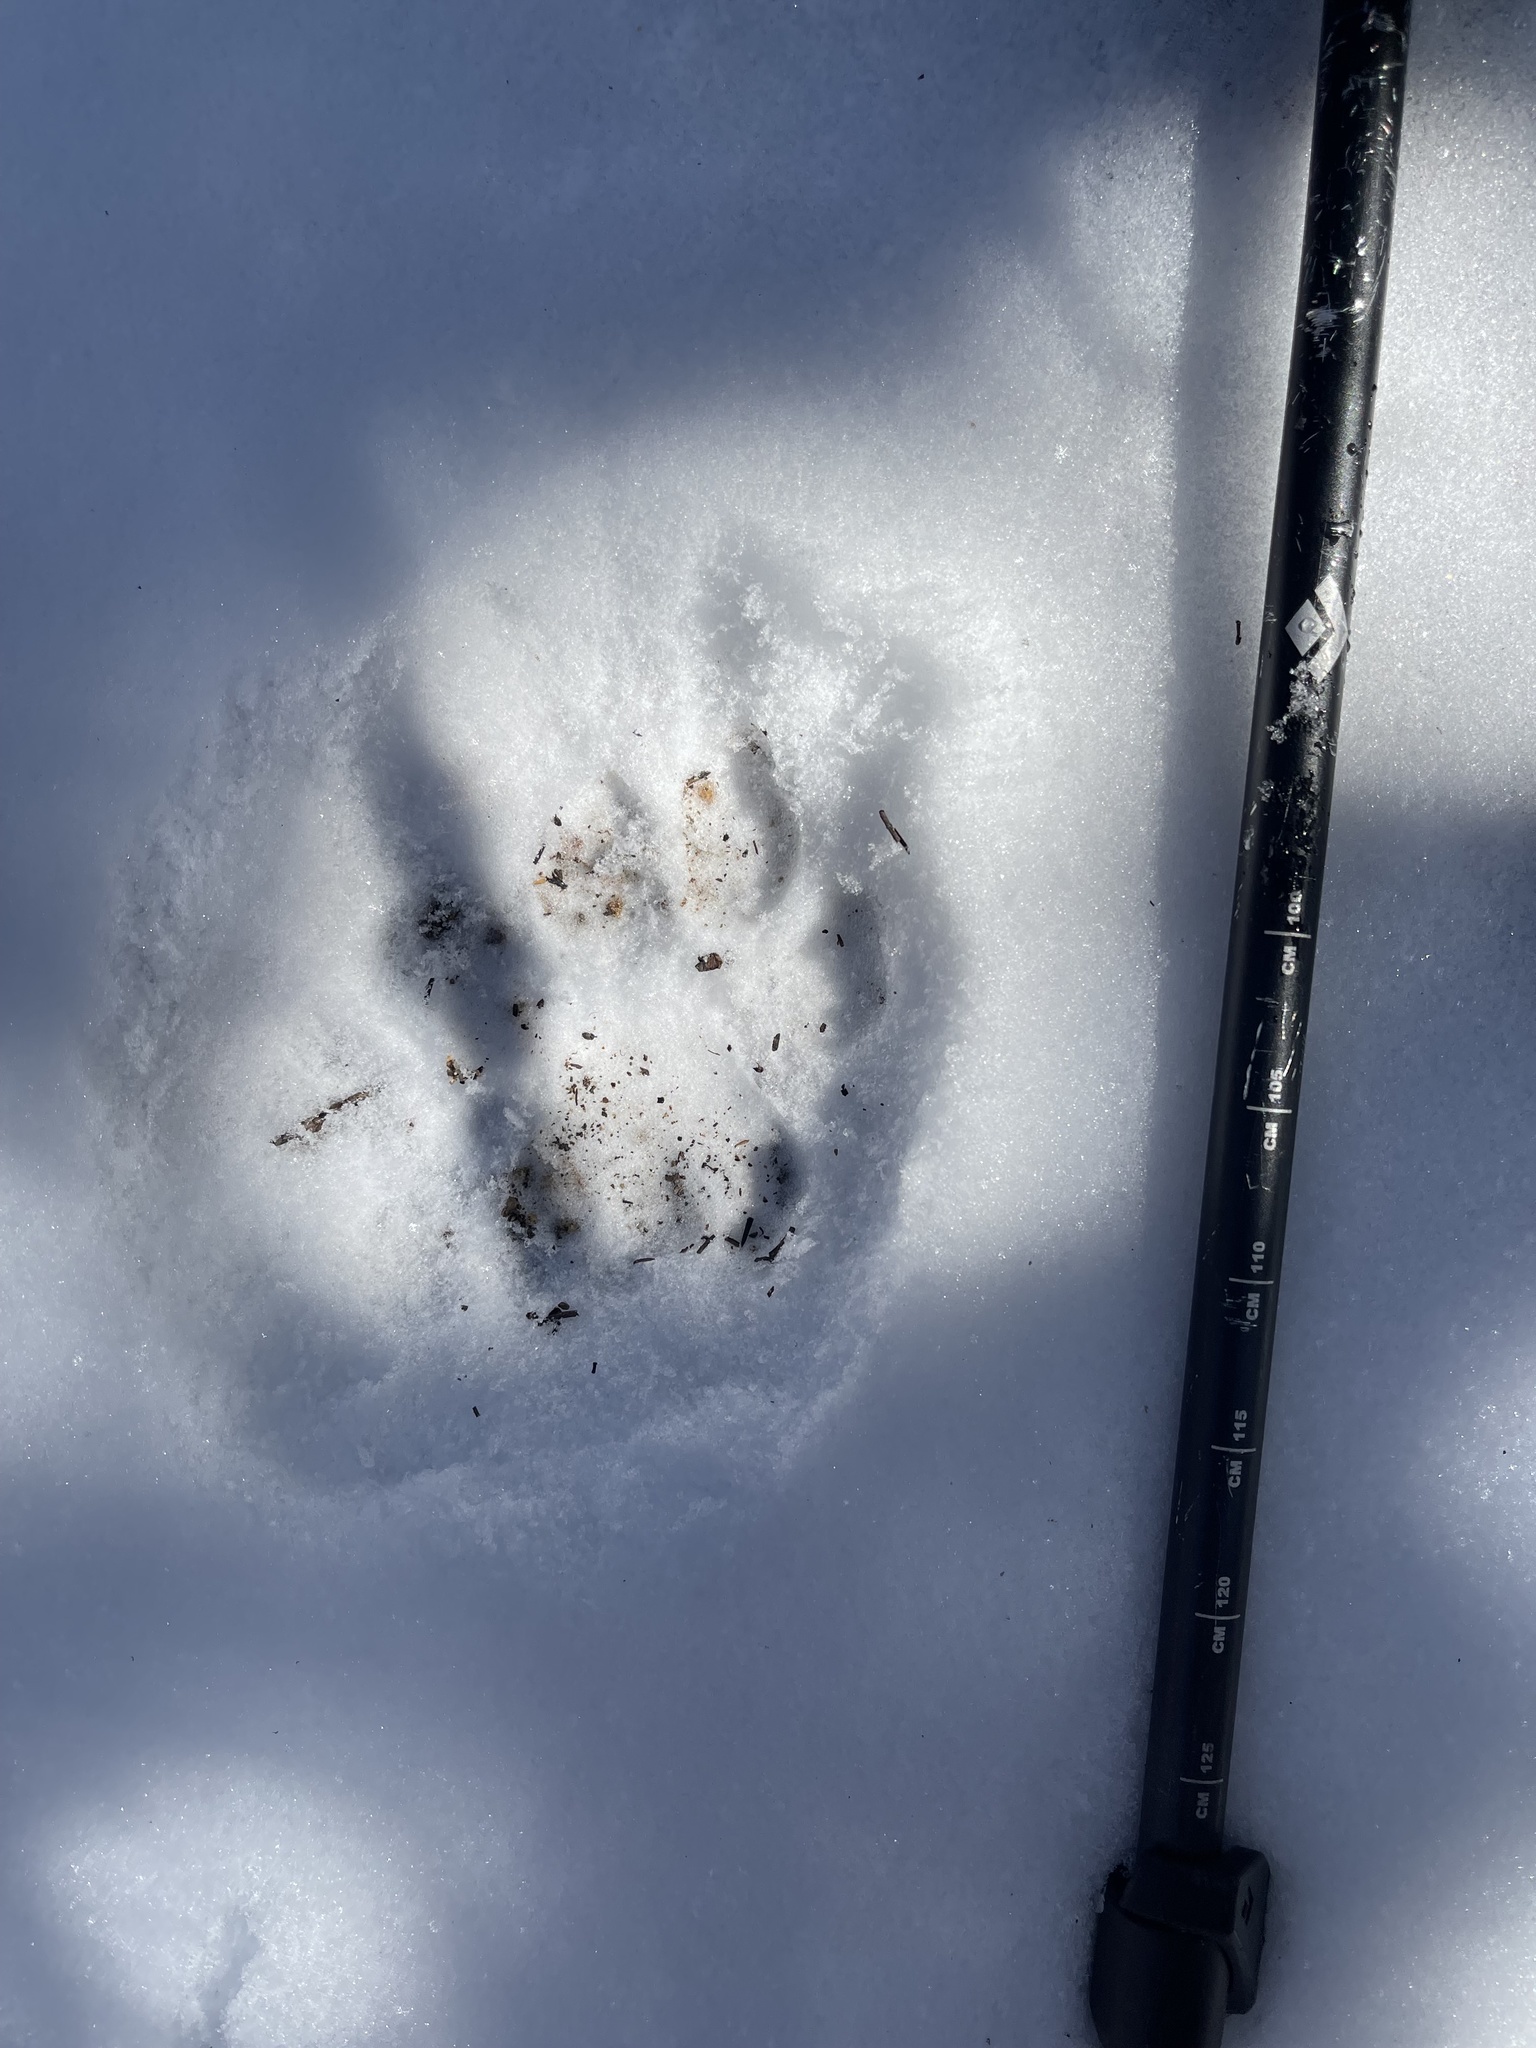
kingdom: Animalia
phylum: Chordata
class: Mammalia
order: Carnivora
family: Felidae
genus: Puma
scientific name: Puma concolor
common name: Puma
